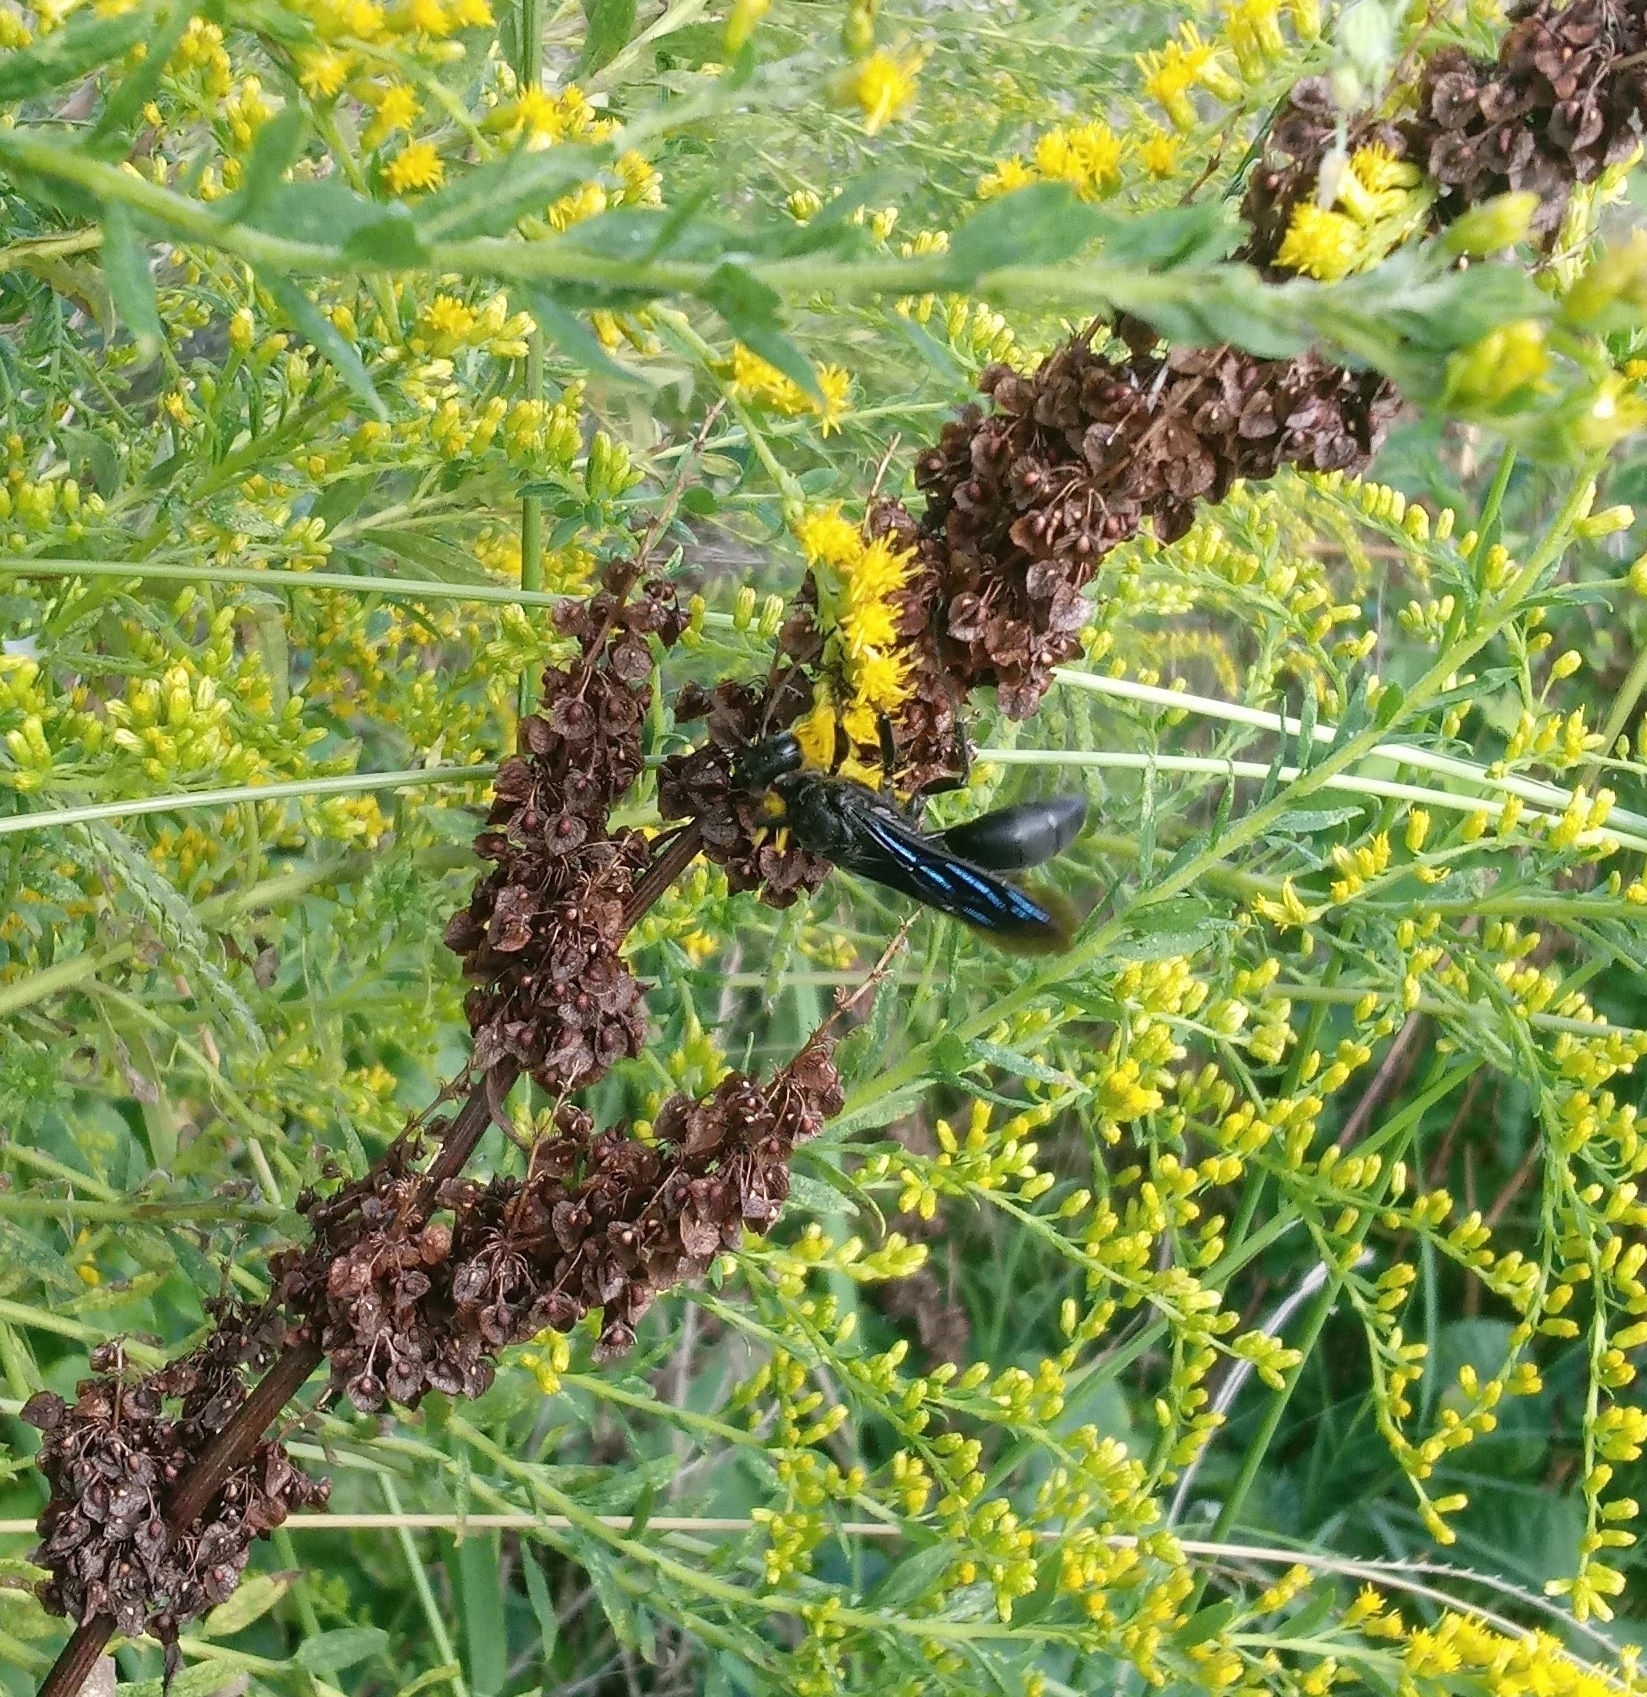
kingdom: Animalia
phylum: Arthropoda
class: Insecta
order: Hymenoptera
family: Sphecidae
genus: Sphex
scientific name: Sphex pensylvanicus
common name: Great black digger wasp
